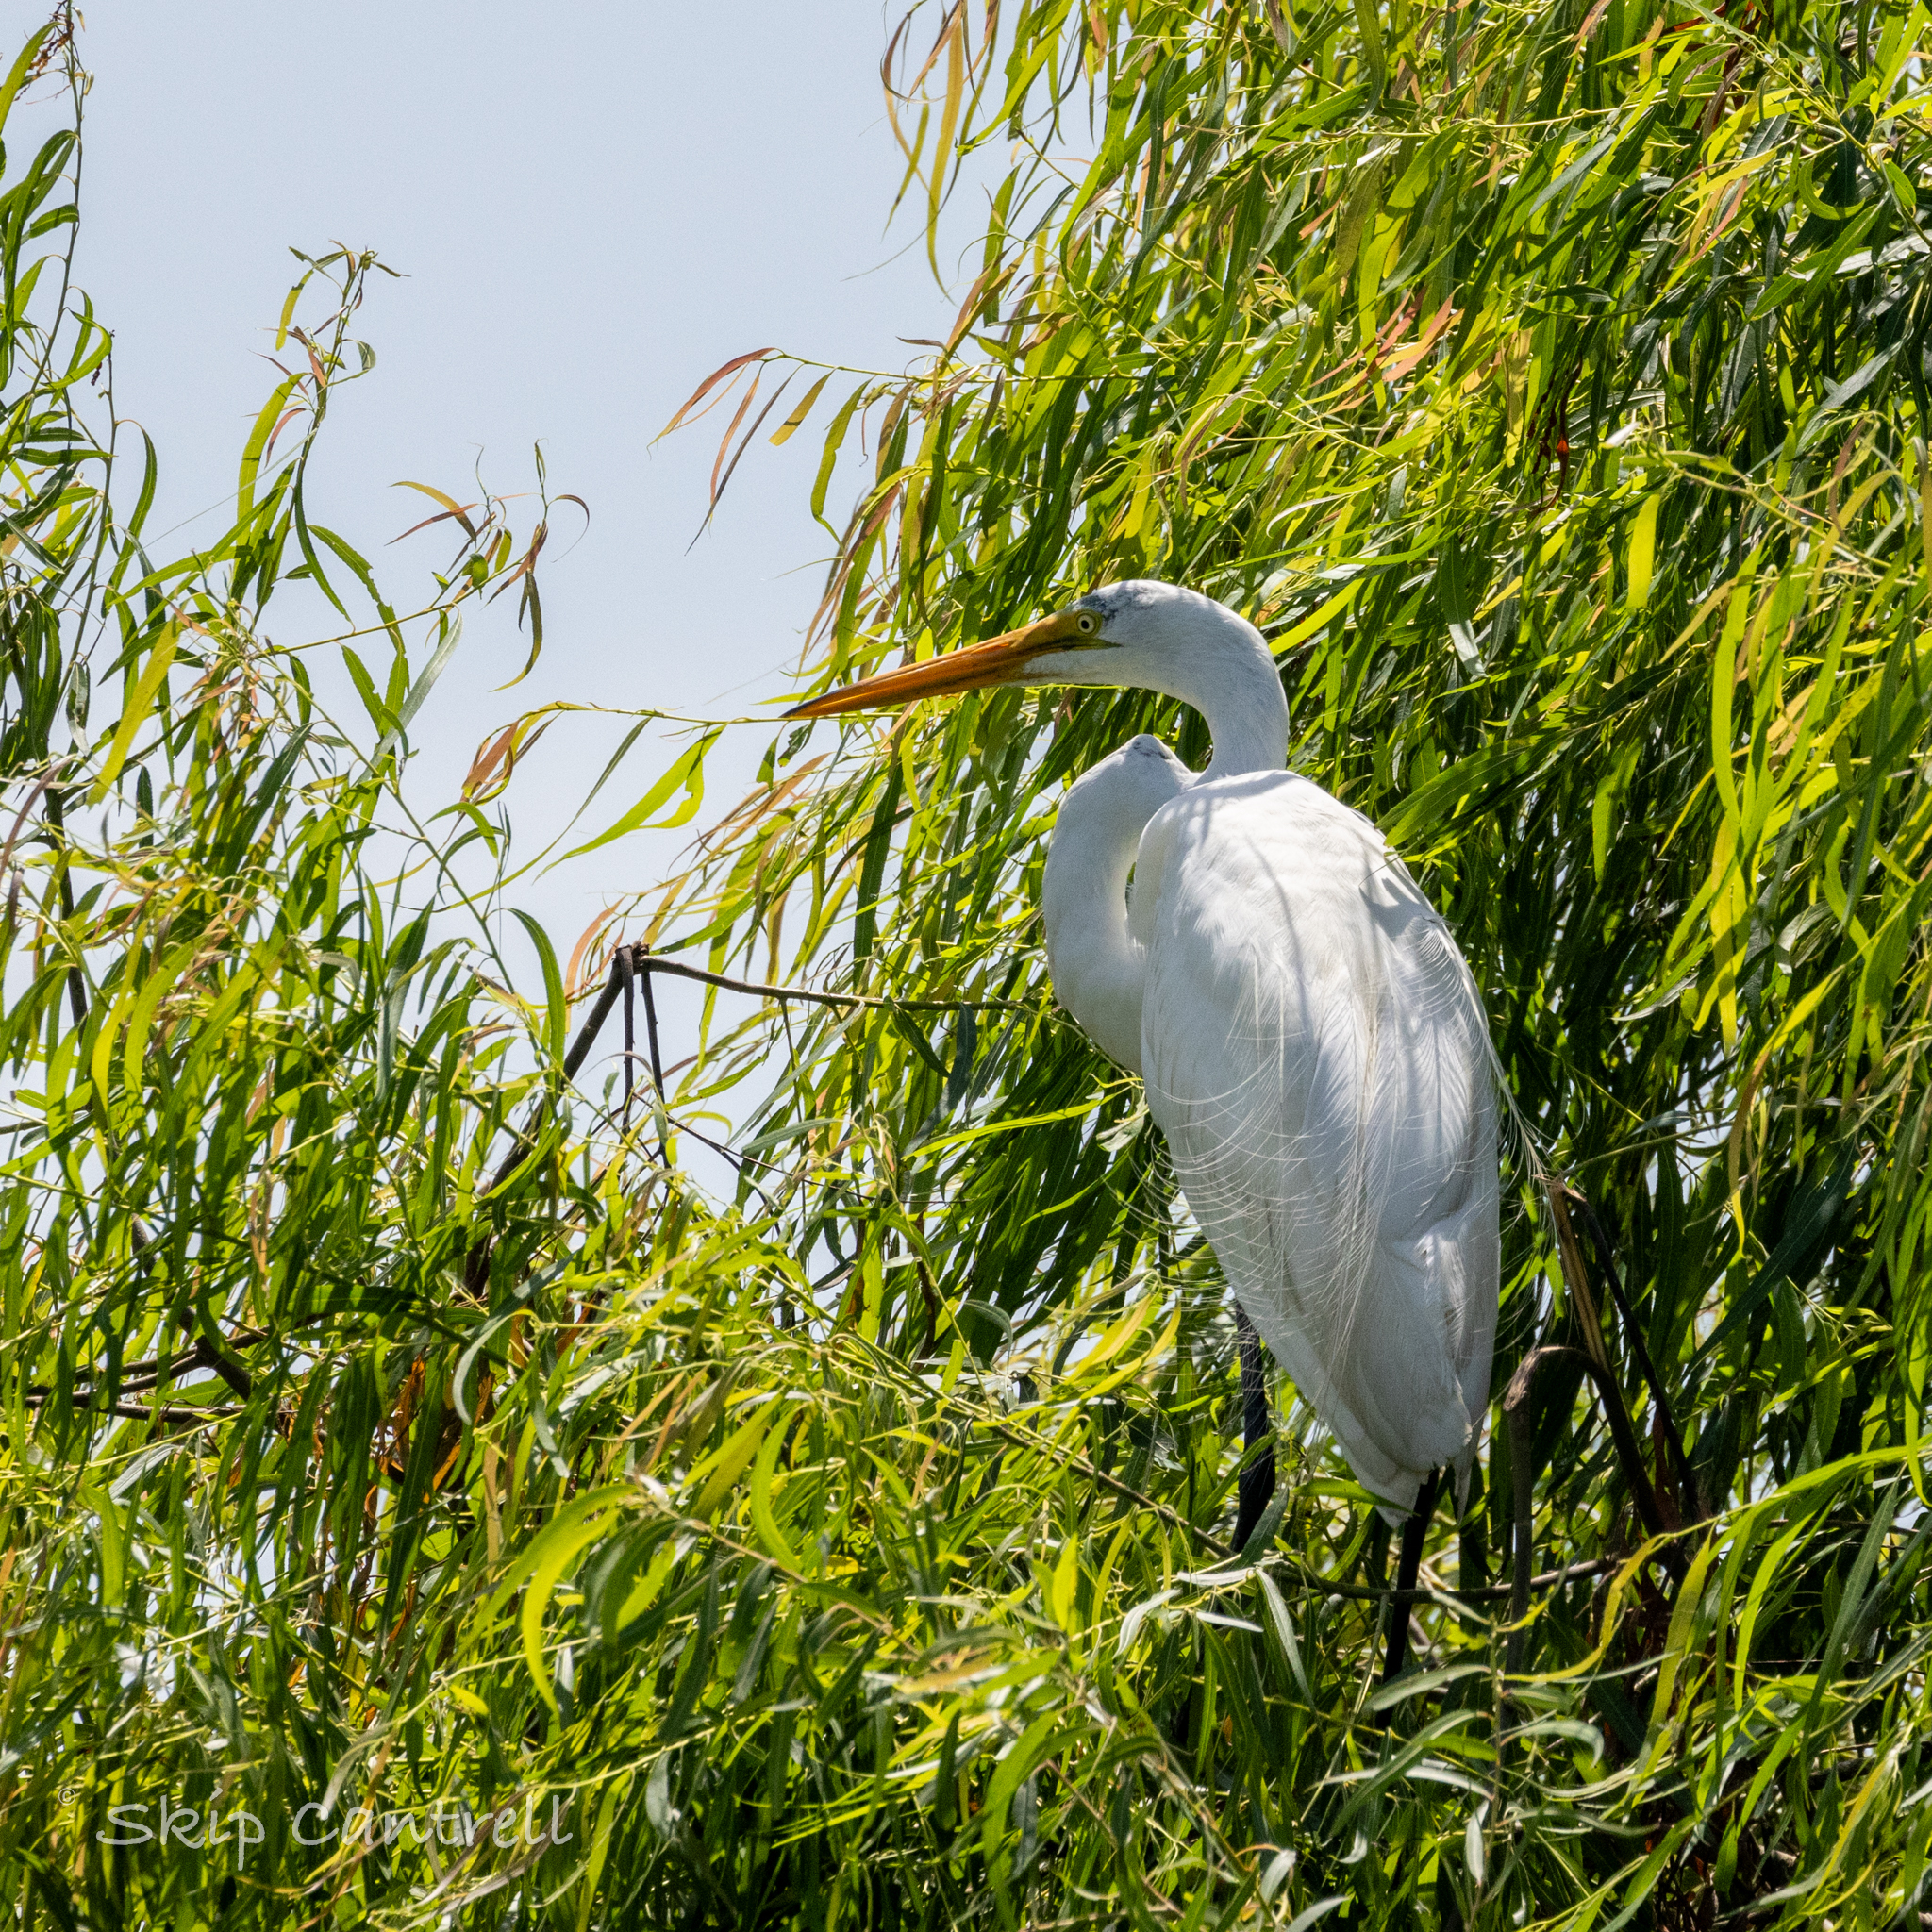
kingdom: Animalia
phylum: Chordata
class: Aves
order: Pelecaniformes
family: Ardeidae
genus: Ardea
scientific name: Ardea alba
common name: Great egret
